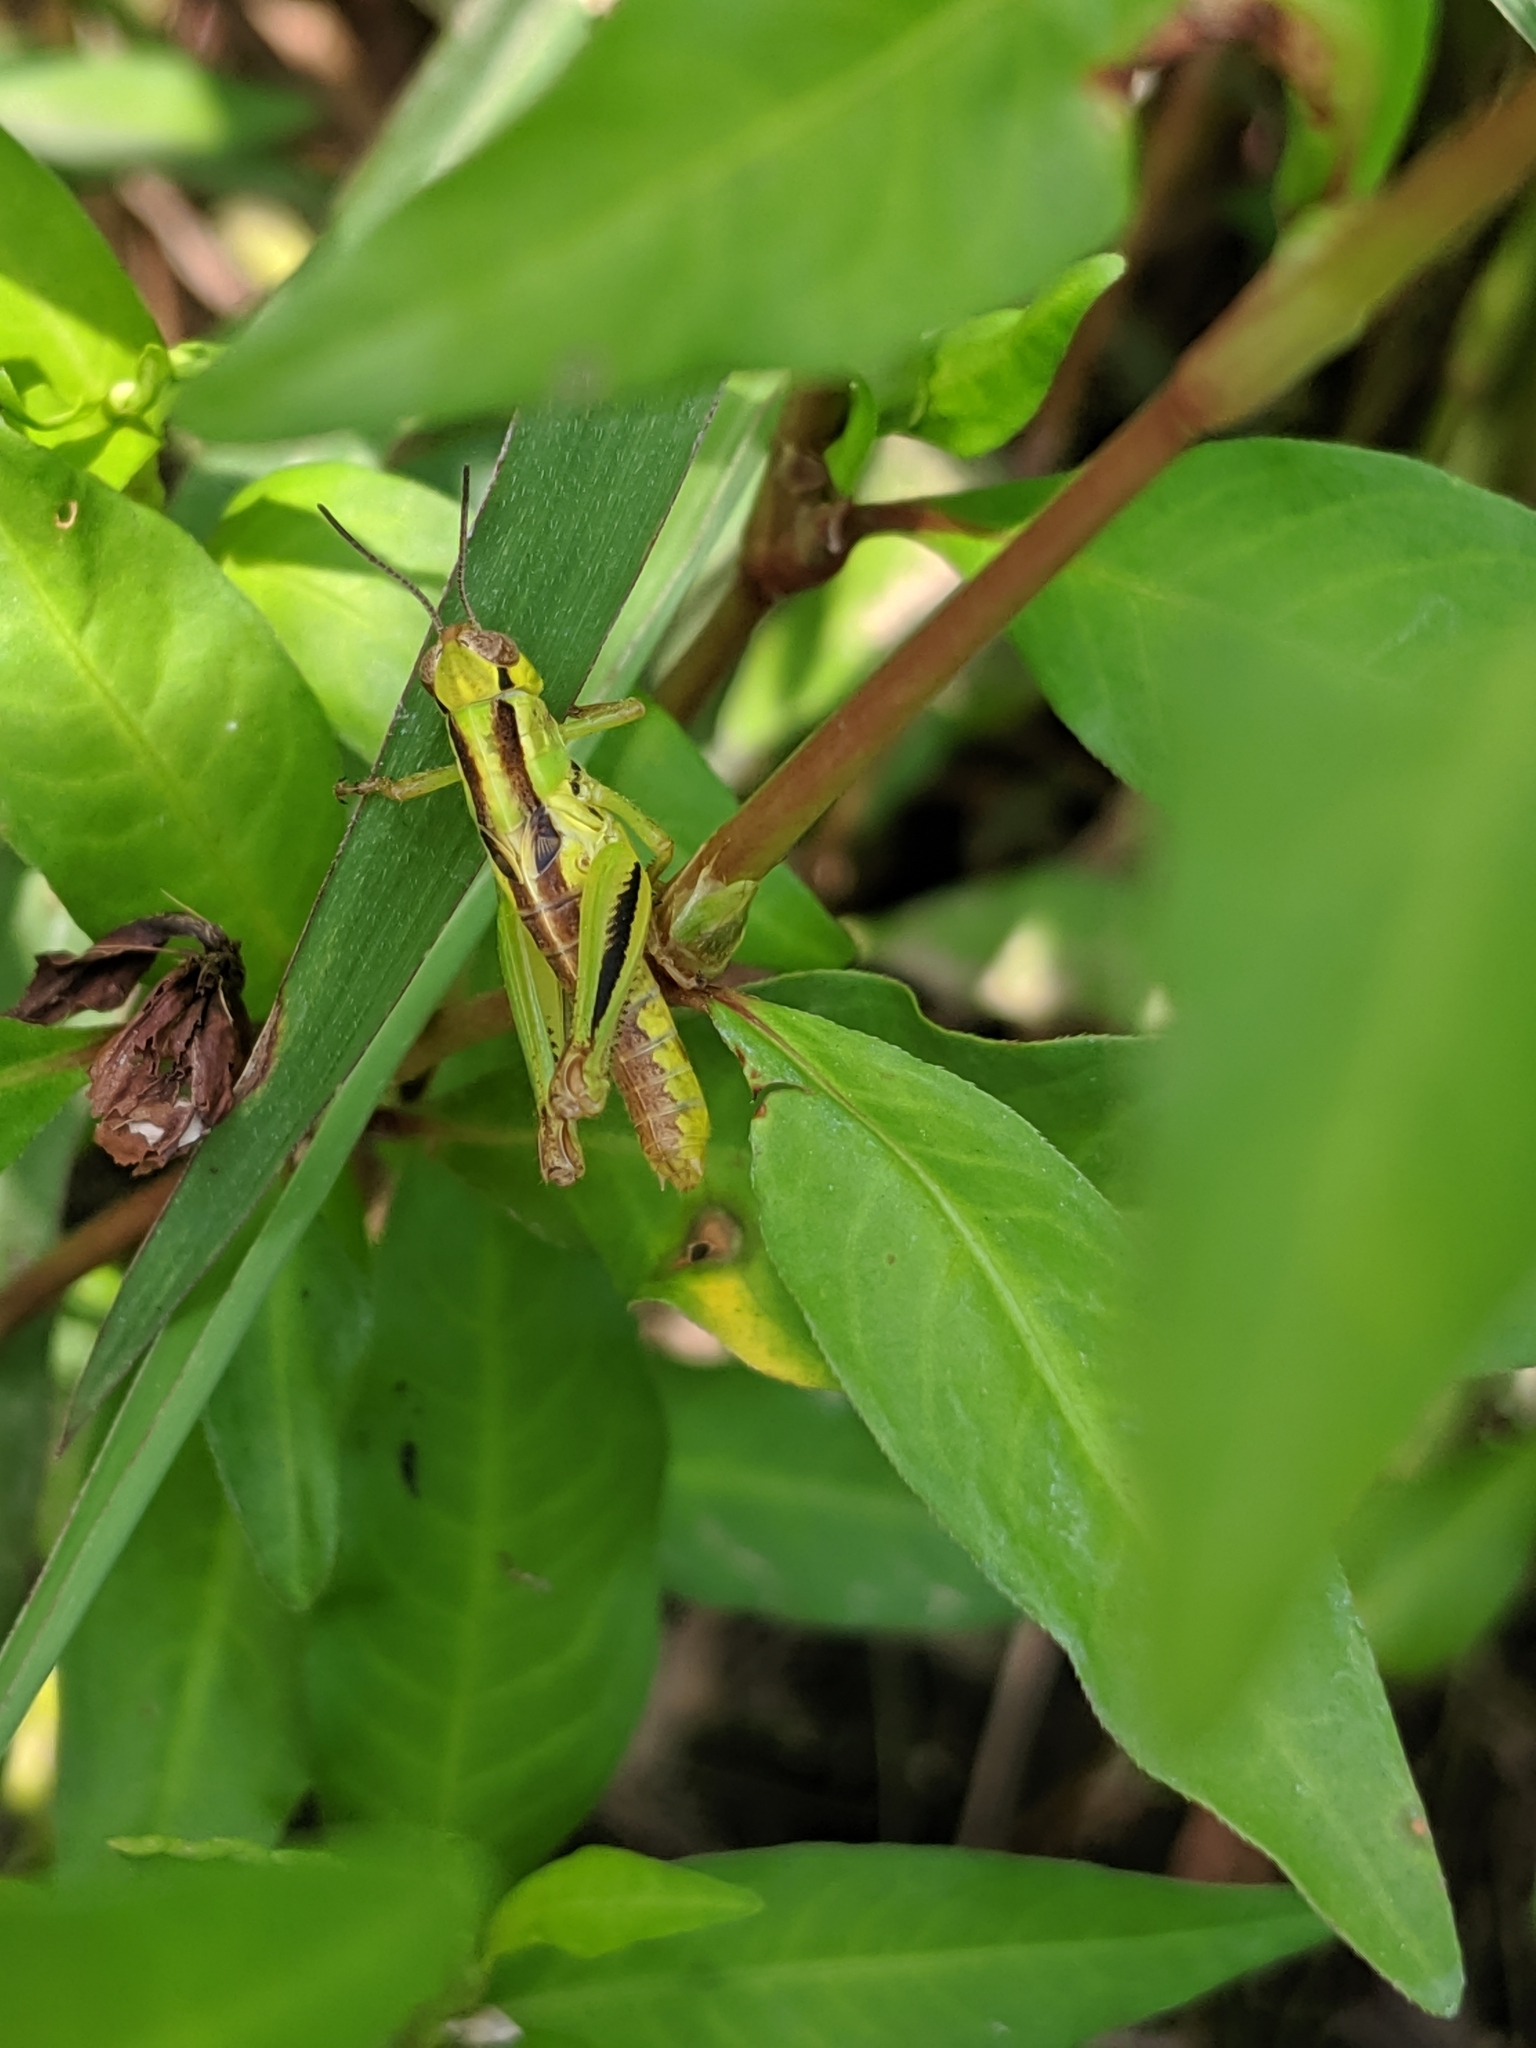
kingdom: Animalia
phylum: Arthropoda
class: Insecta
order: Orthoptera
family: Acrididae
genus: Melanoplus
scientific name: Melanoplus
